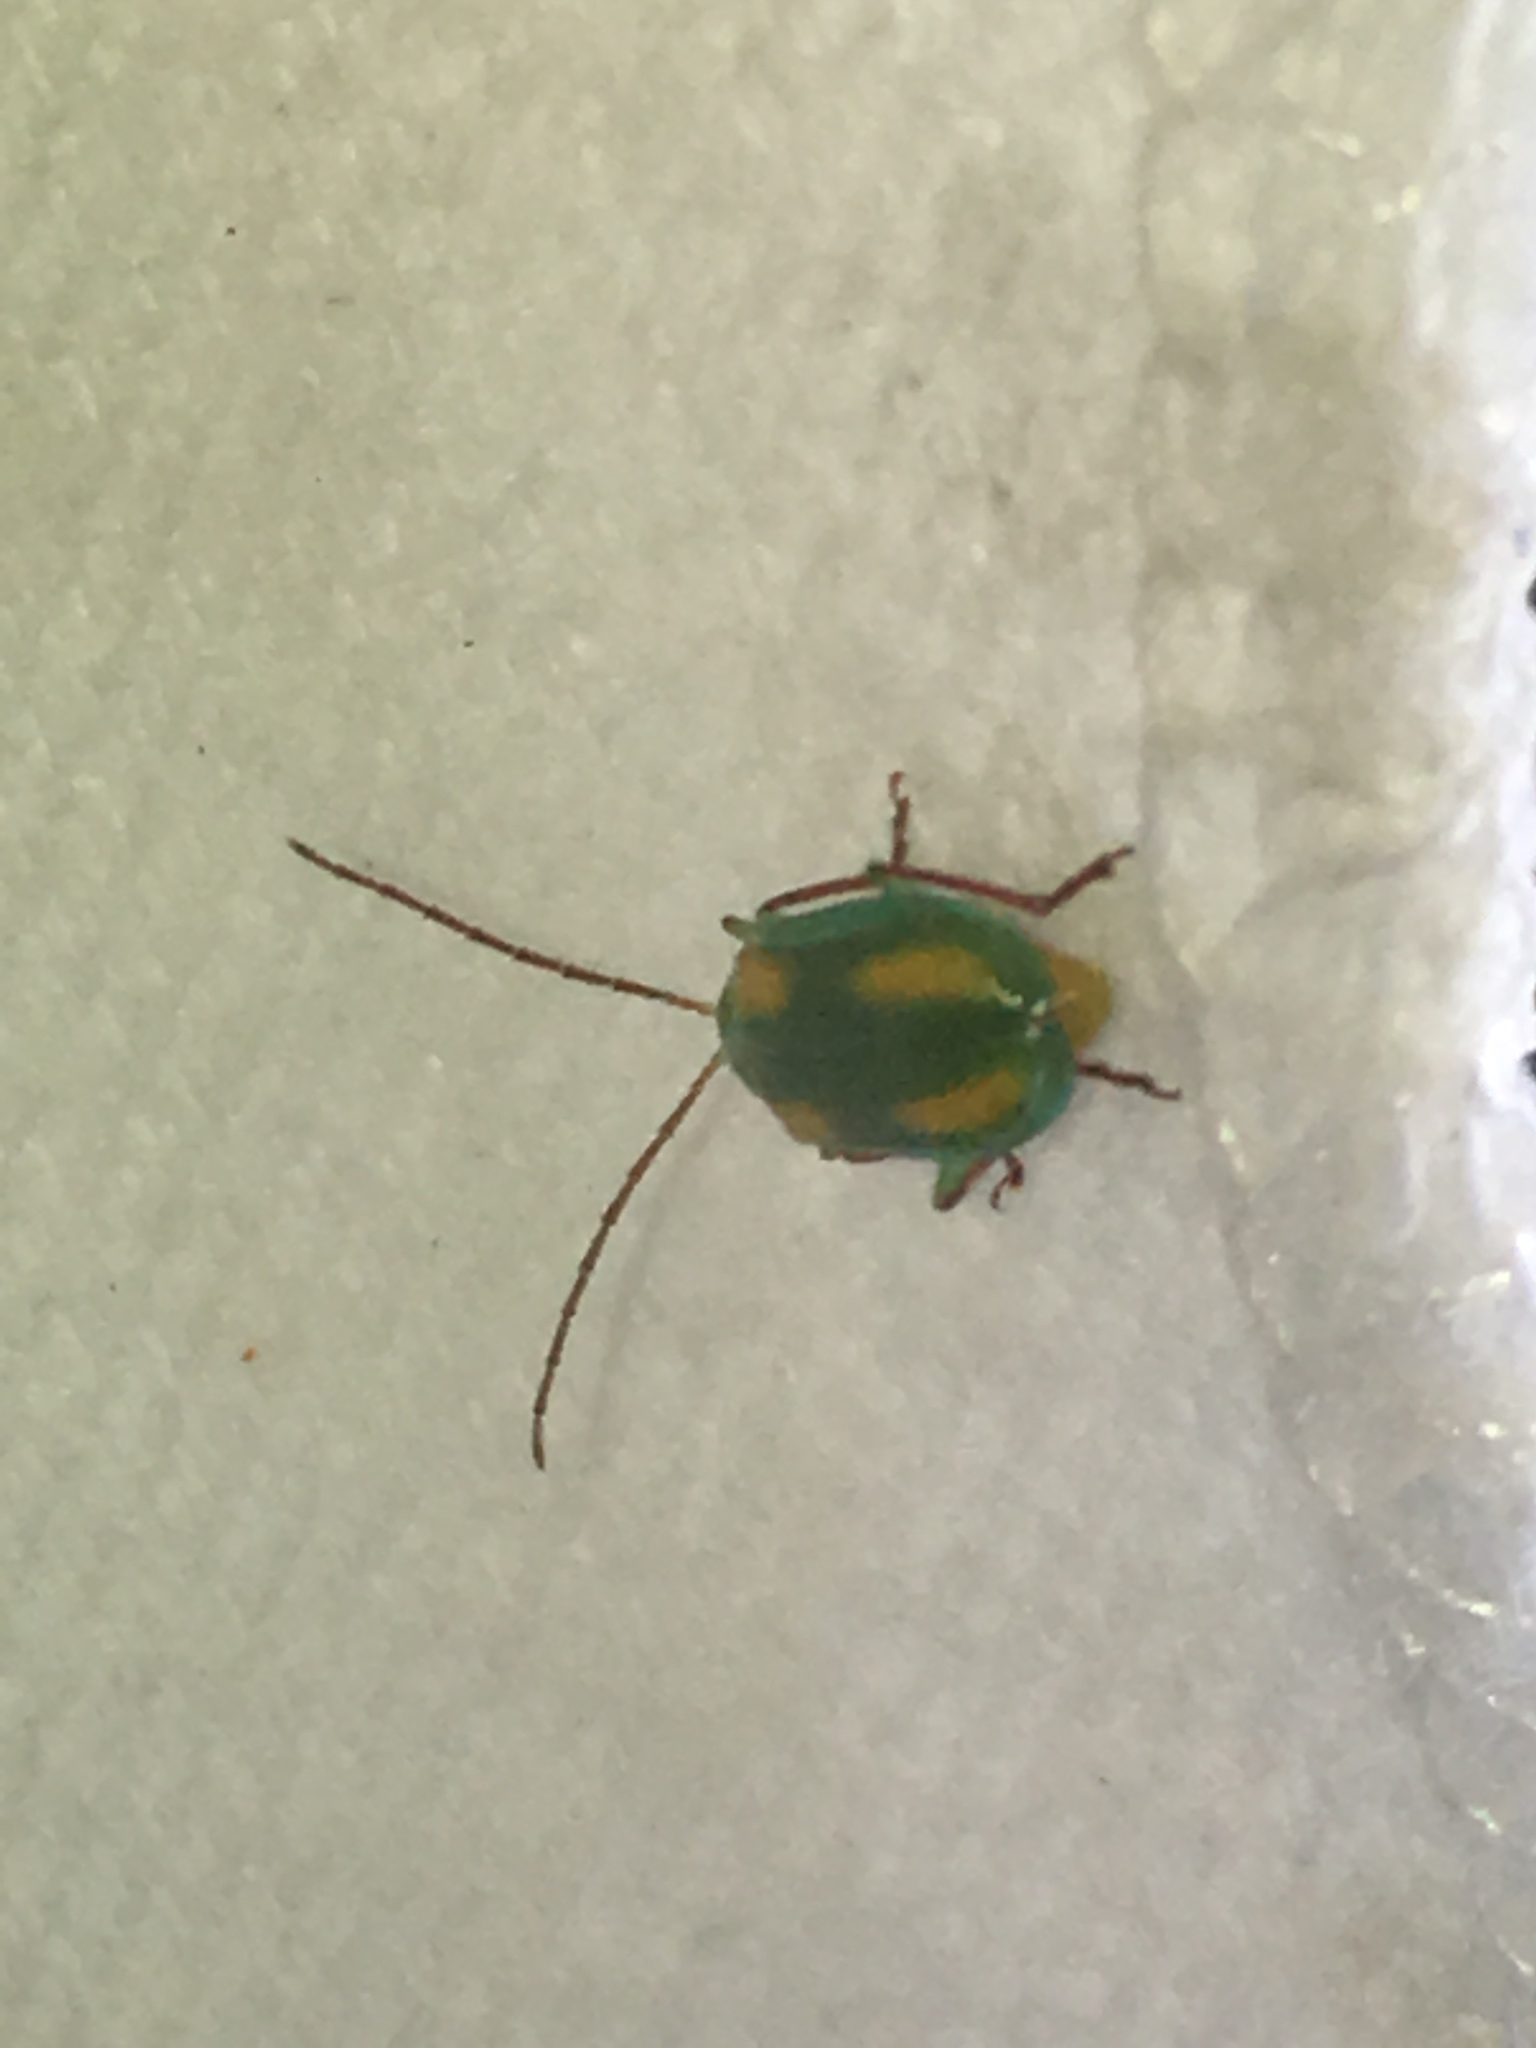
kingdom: Animalia
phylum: Arthropoda
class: Insecta
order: Coleoptera
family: Chrysomelidae
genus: Diabrotica
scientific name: Diabrotica porracea
